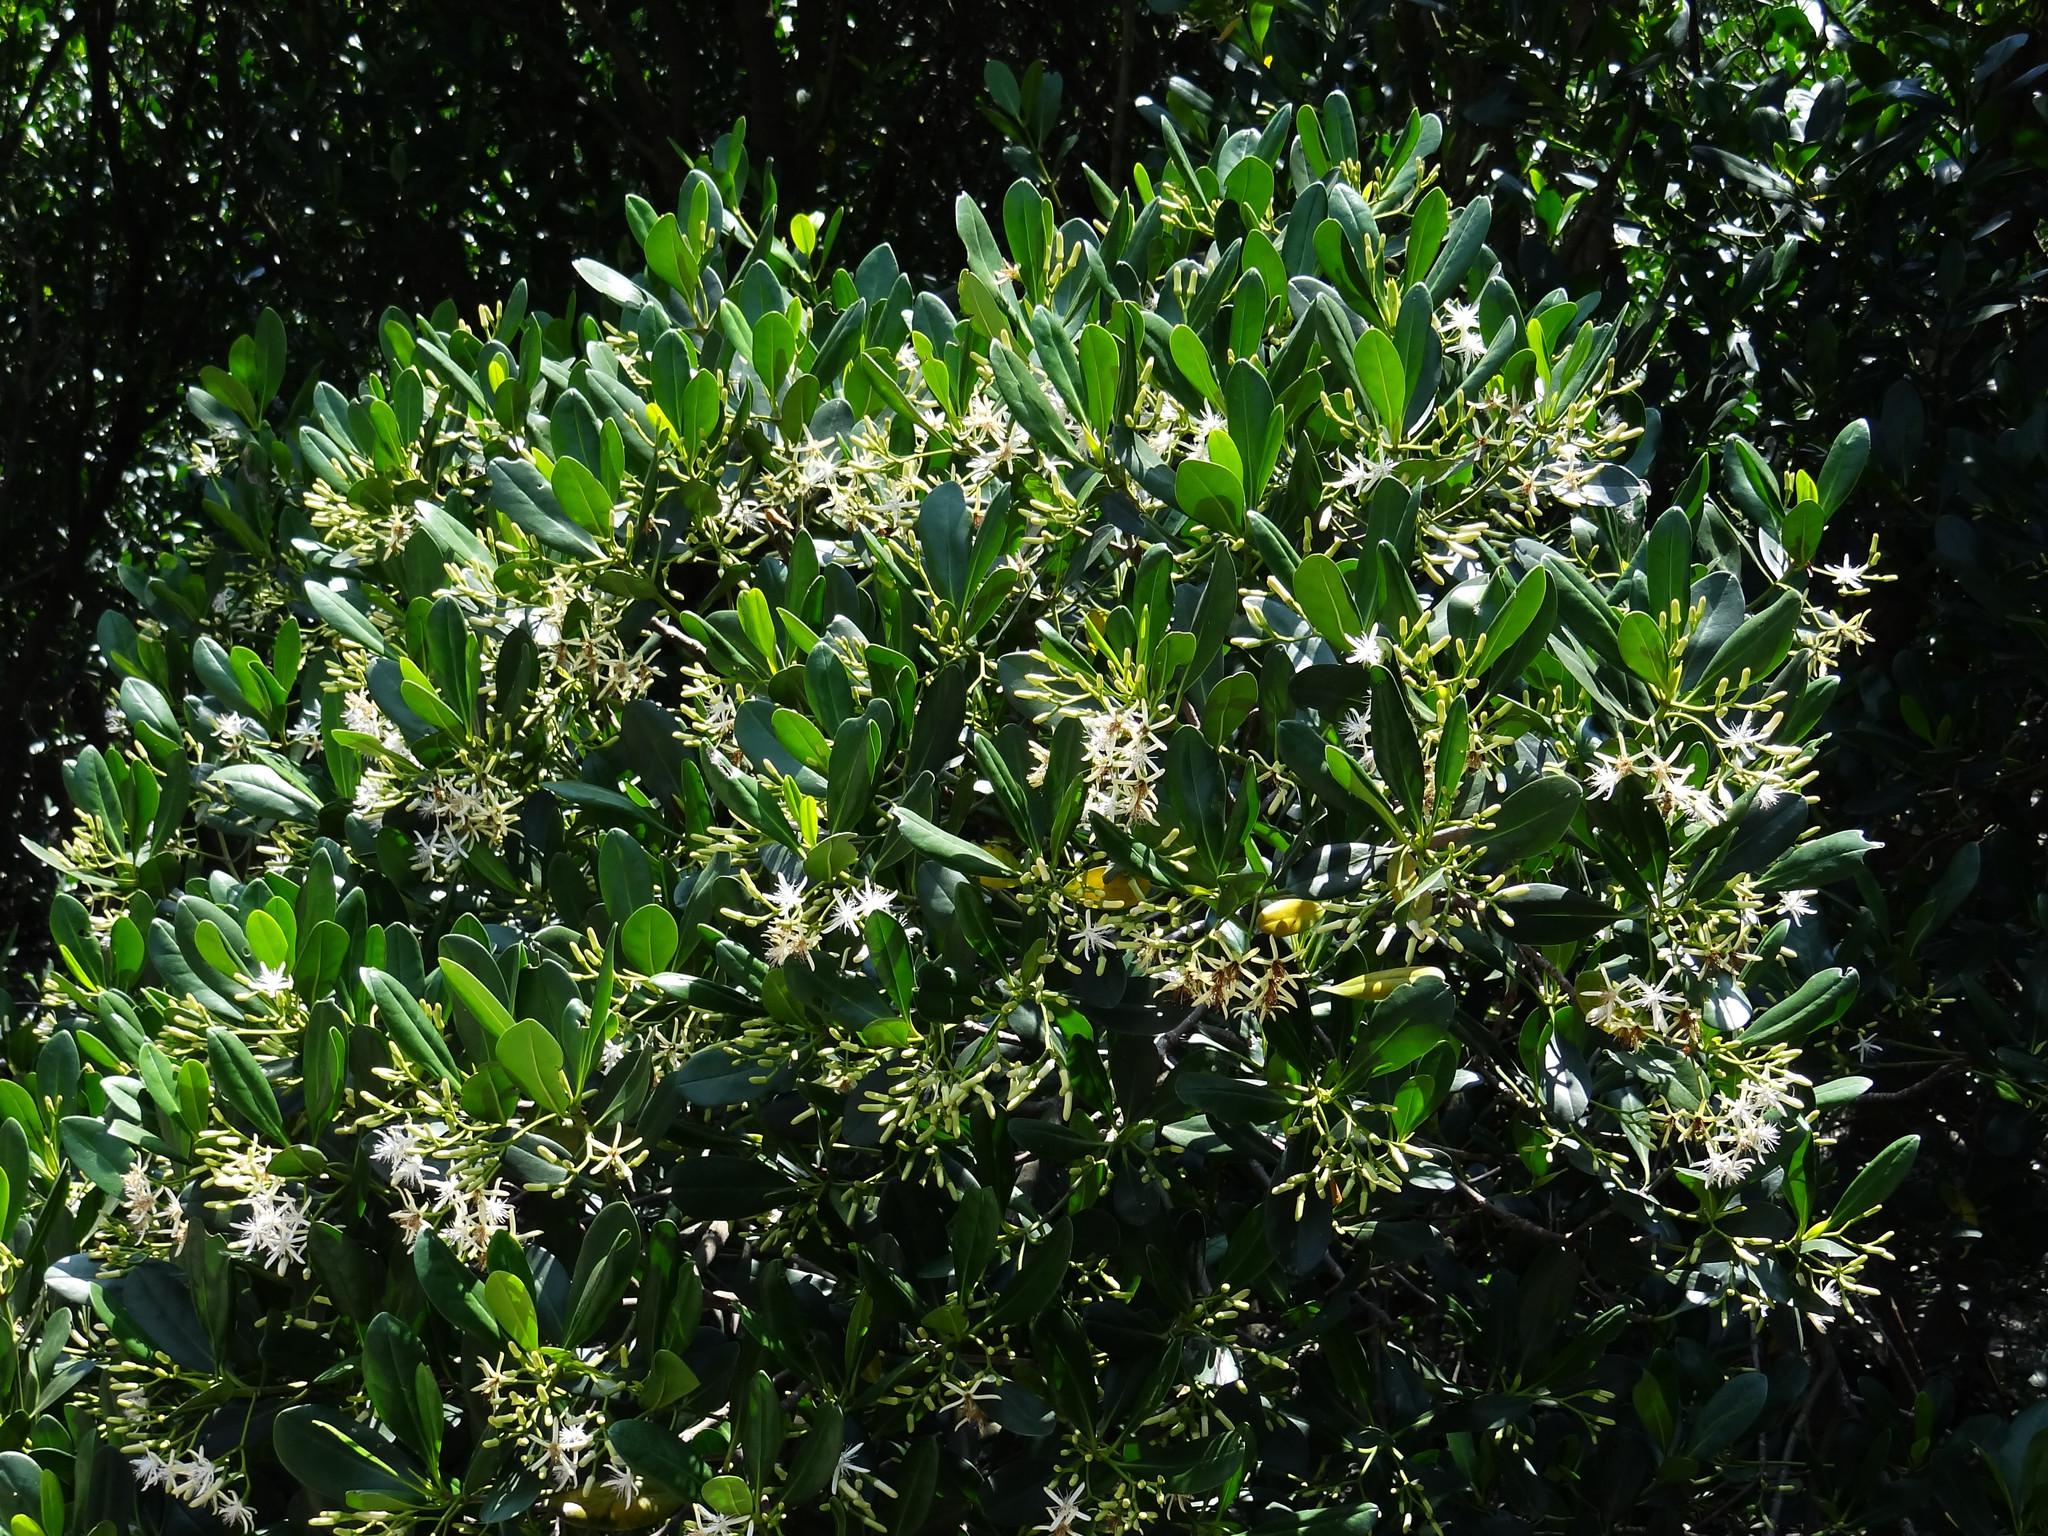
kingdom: Plantae
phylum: Tracheophyta
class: Magnoliopsida
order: Malpighiales
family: Rhizophoraceae
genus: Kandelia
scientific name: Kandelia obovata
